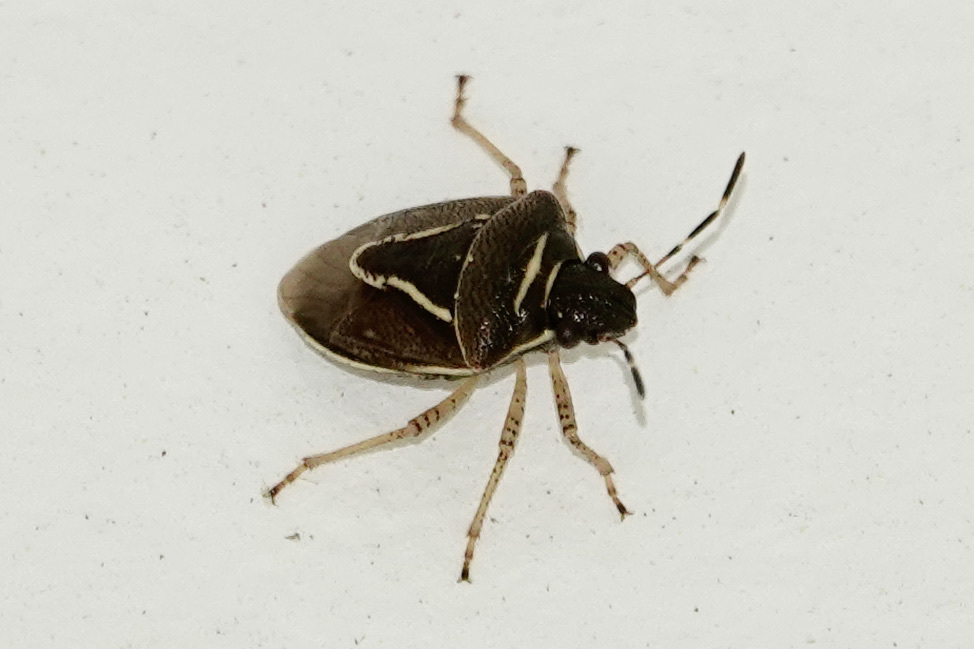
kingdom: Animalia
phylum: Arthropoda
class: Insecta
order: Hemiptera
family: Pentatomidae
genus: Mormidea
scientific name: Mormidea lugens
